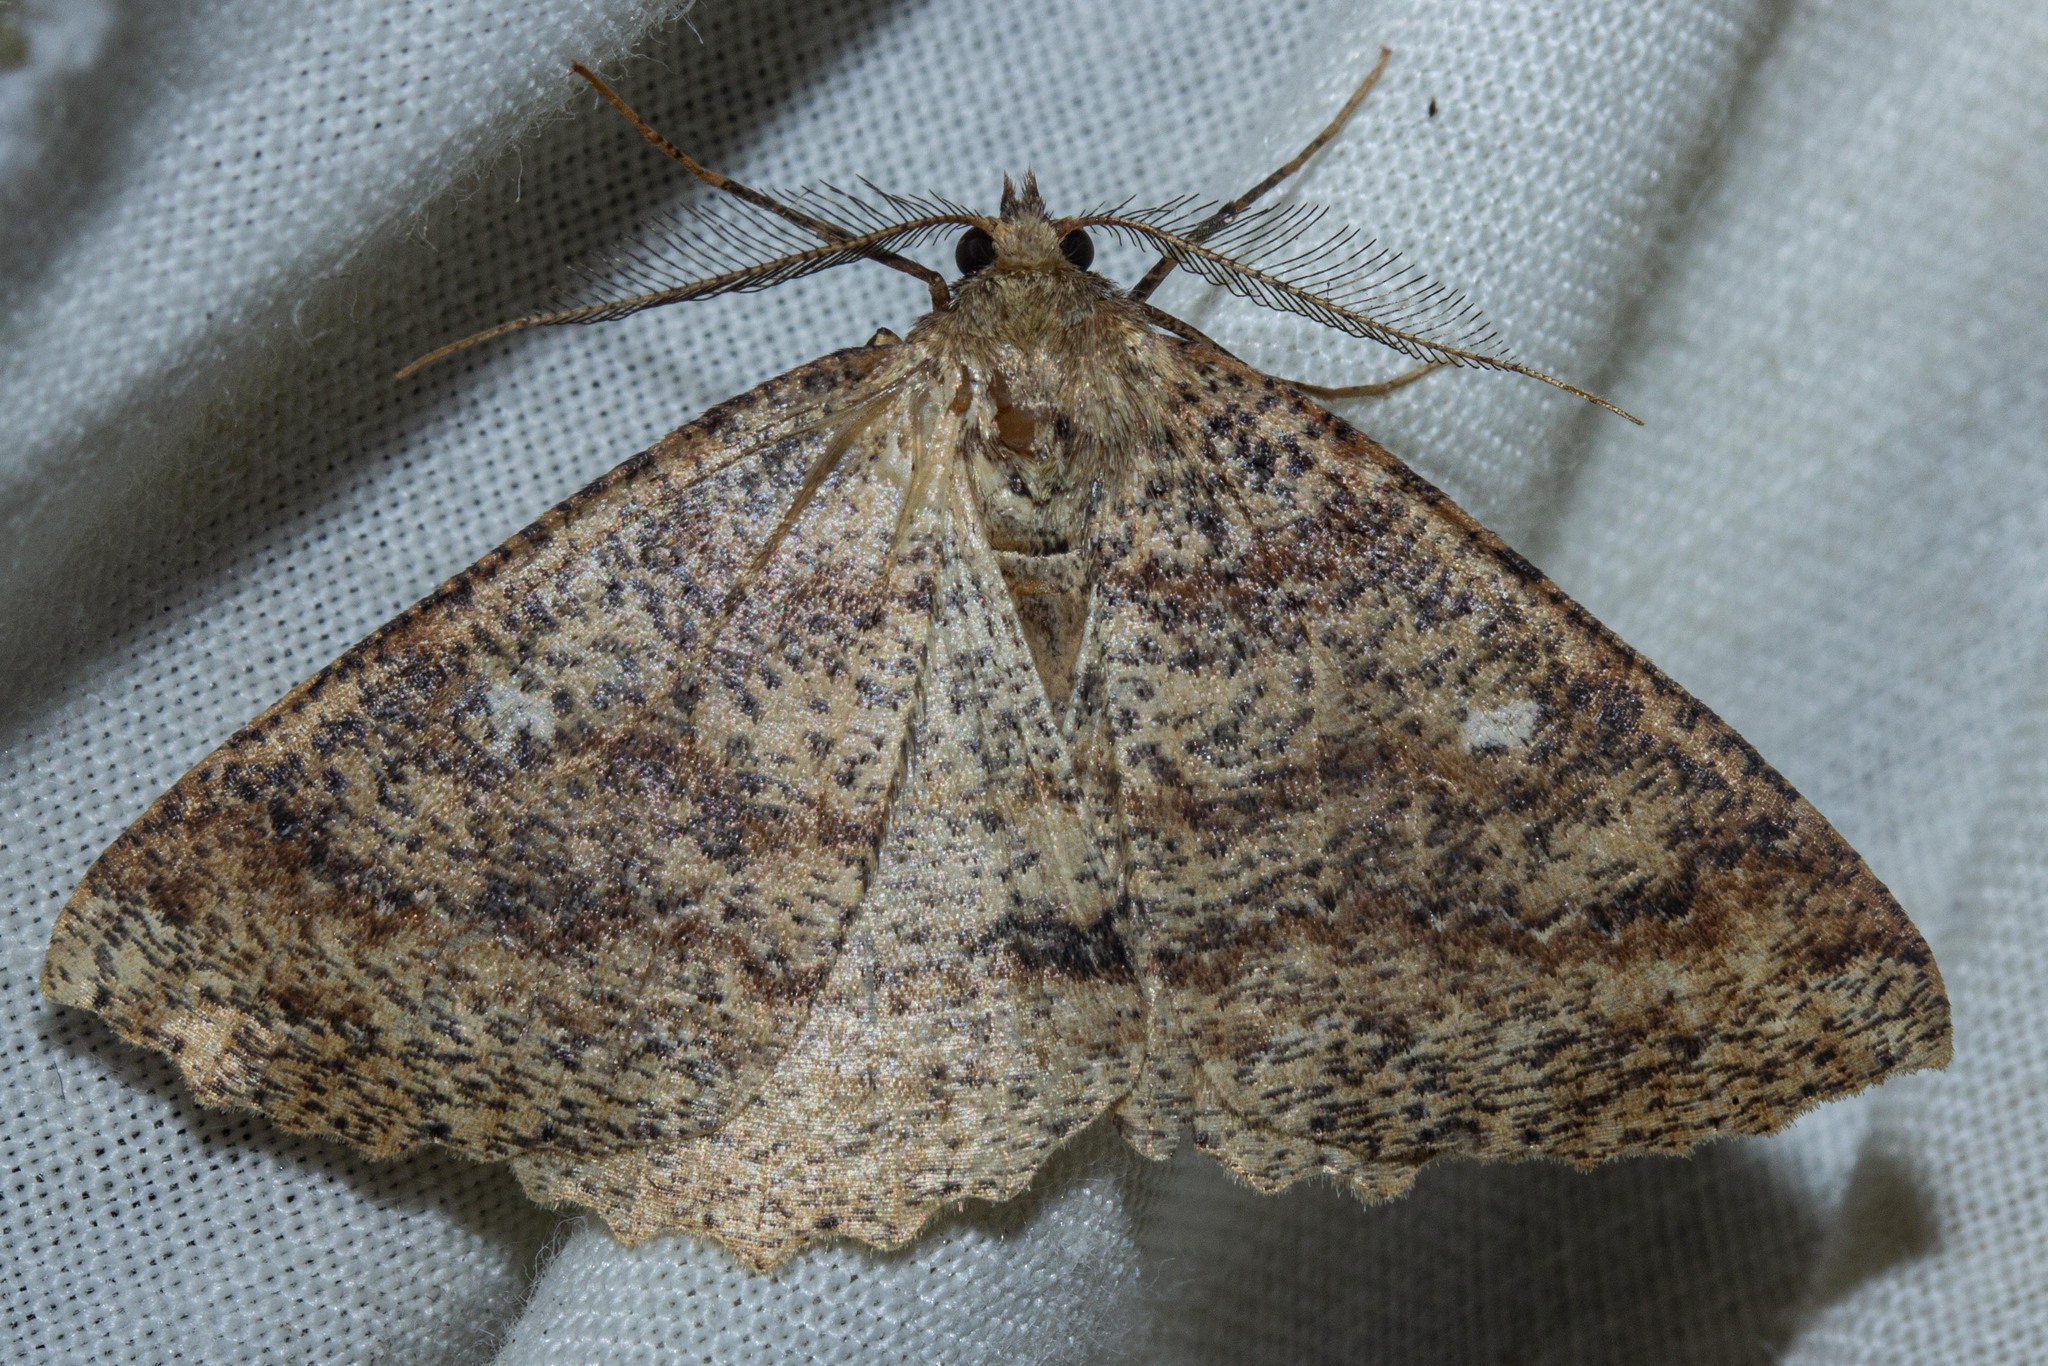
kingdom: Animalia
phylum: Arthropoda
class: Insecta
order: Lepidoptera
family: Geometridae
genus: Cleora
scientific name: Cleora scriptaria
